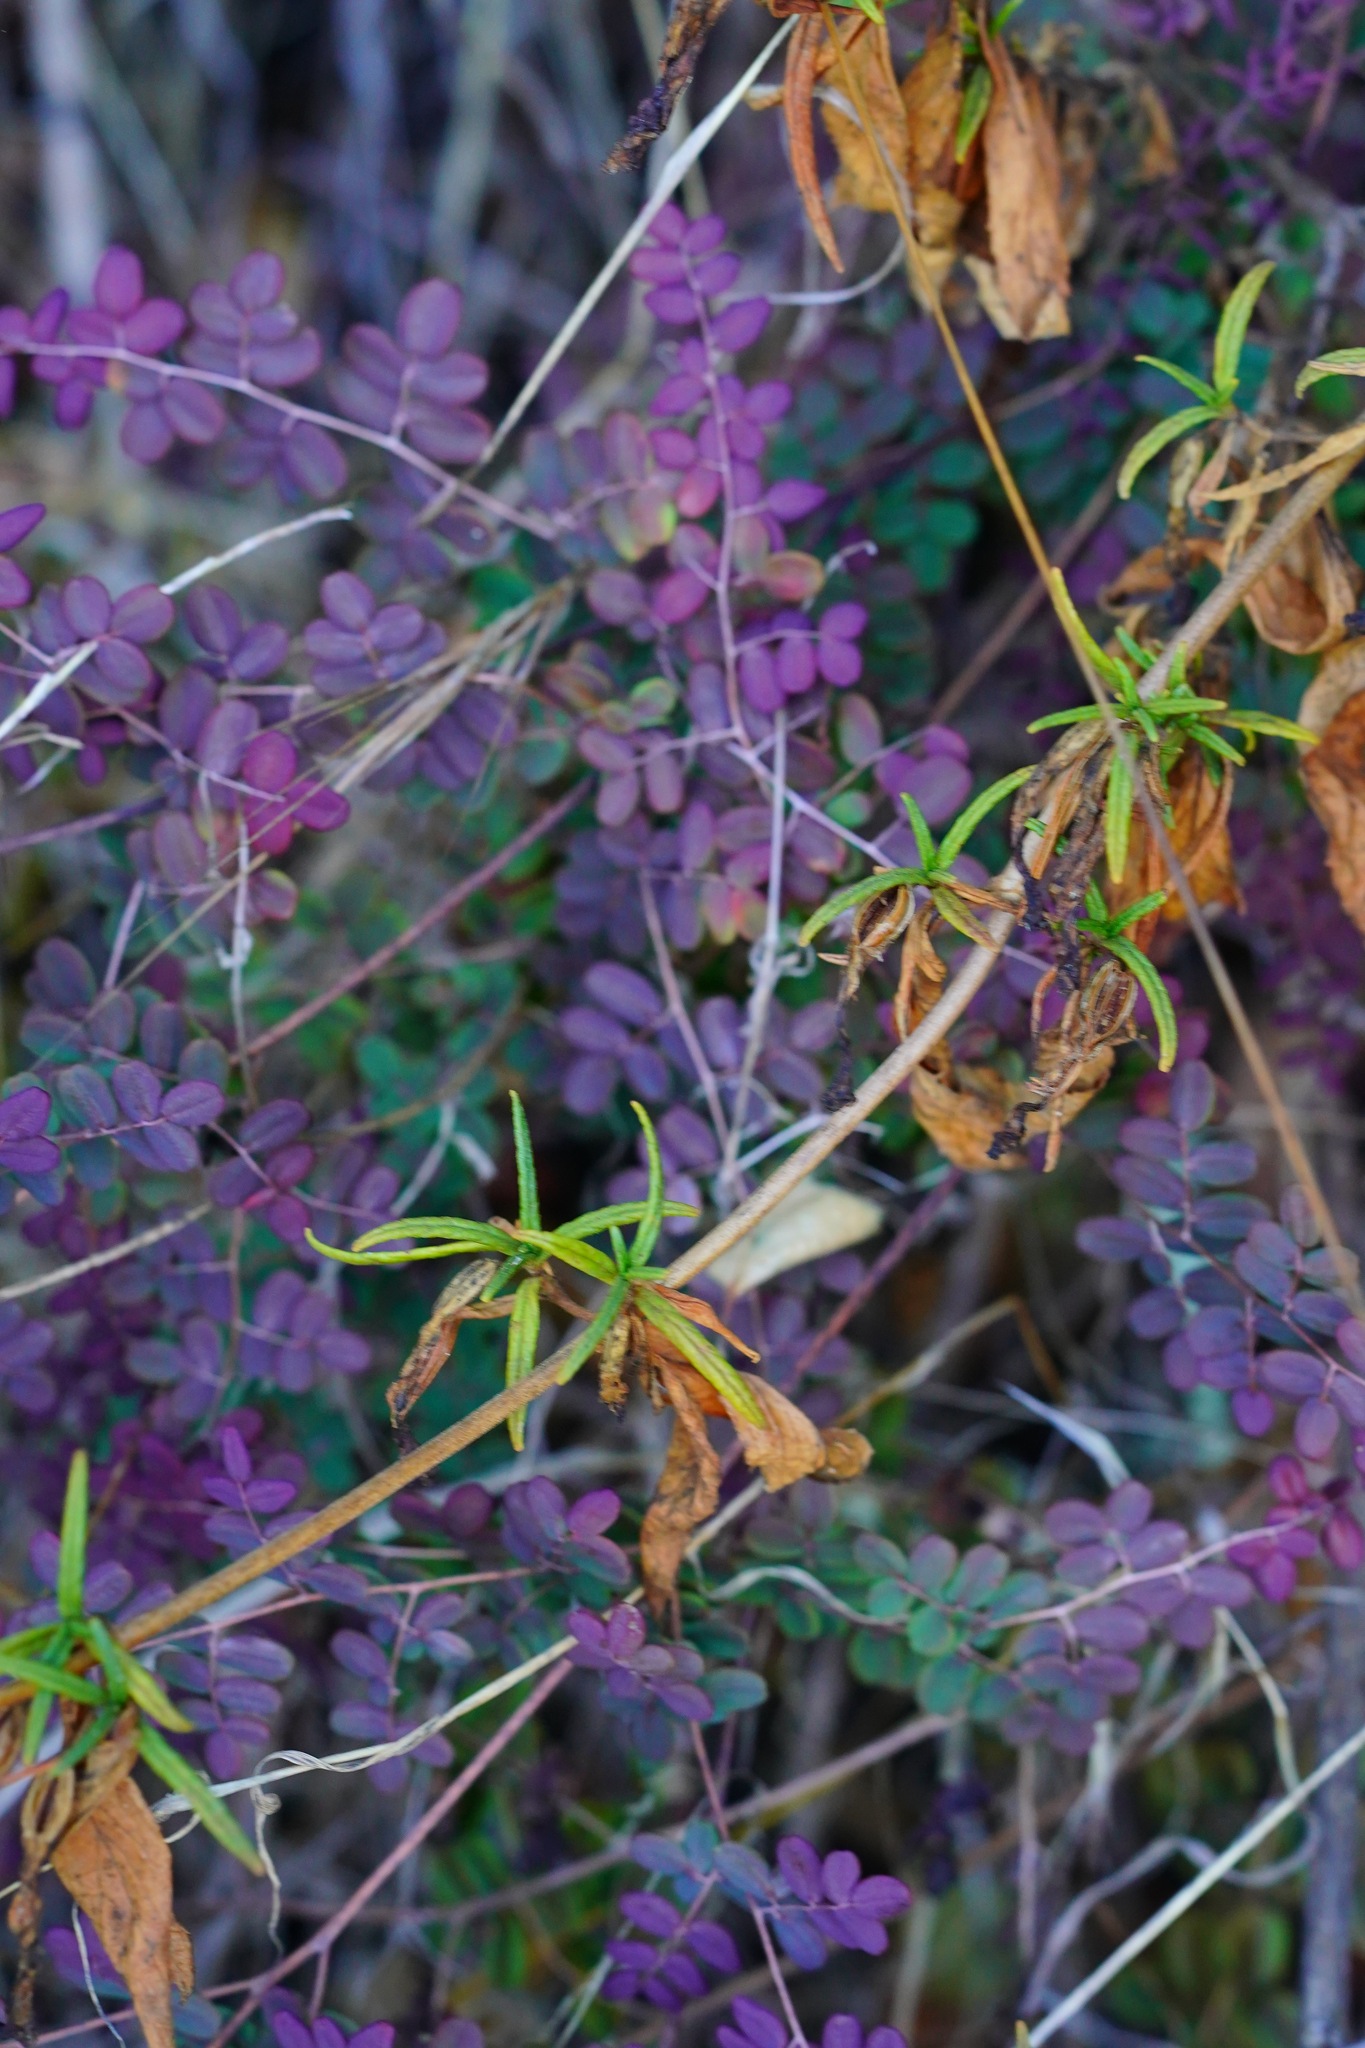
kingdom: Plantae
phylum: Tracheophyta
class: Polypodiopsida
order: Polypodiales
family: Pteridaceae
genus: Pellaea
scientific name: Pellaea andromedifolia
